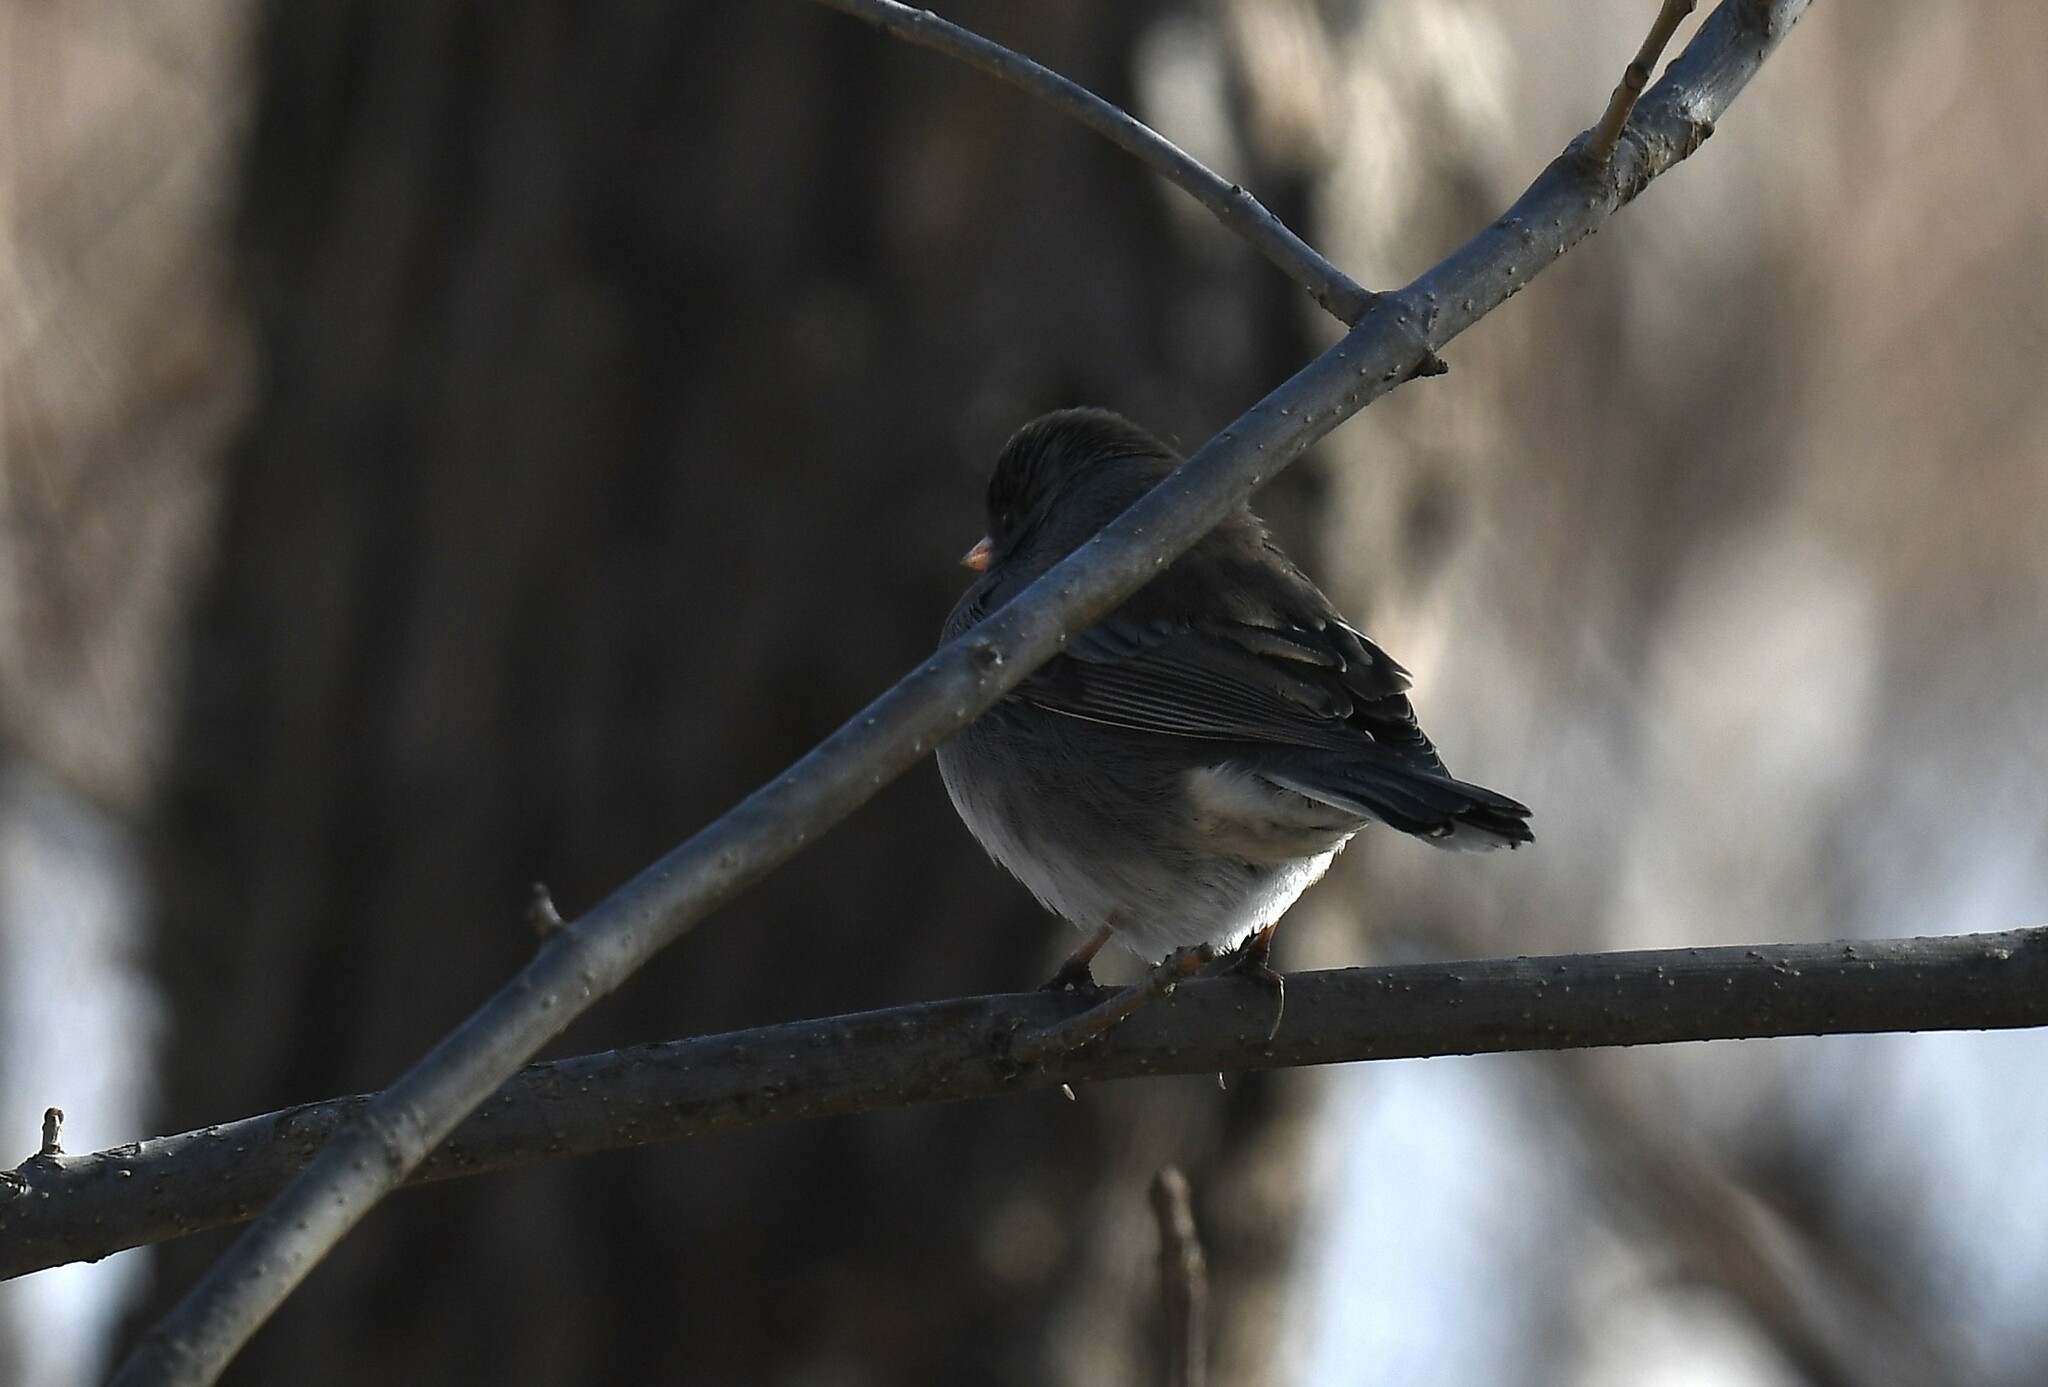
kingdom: Animalia
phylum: Chordata
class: Aves
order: Passeriformes
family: Passerellidae
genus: Junco
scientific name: Junco hyemalis
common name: Dark-eyed junco
